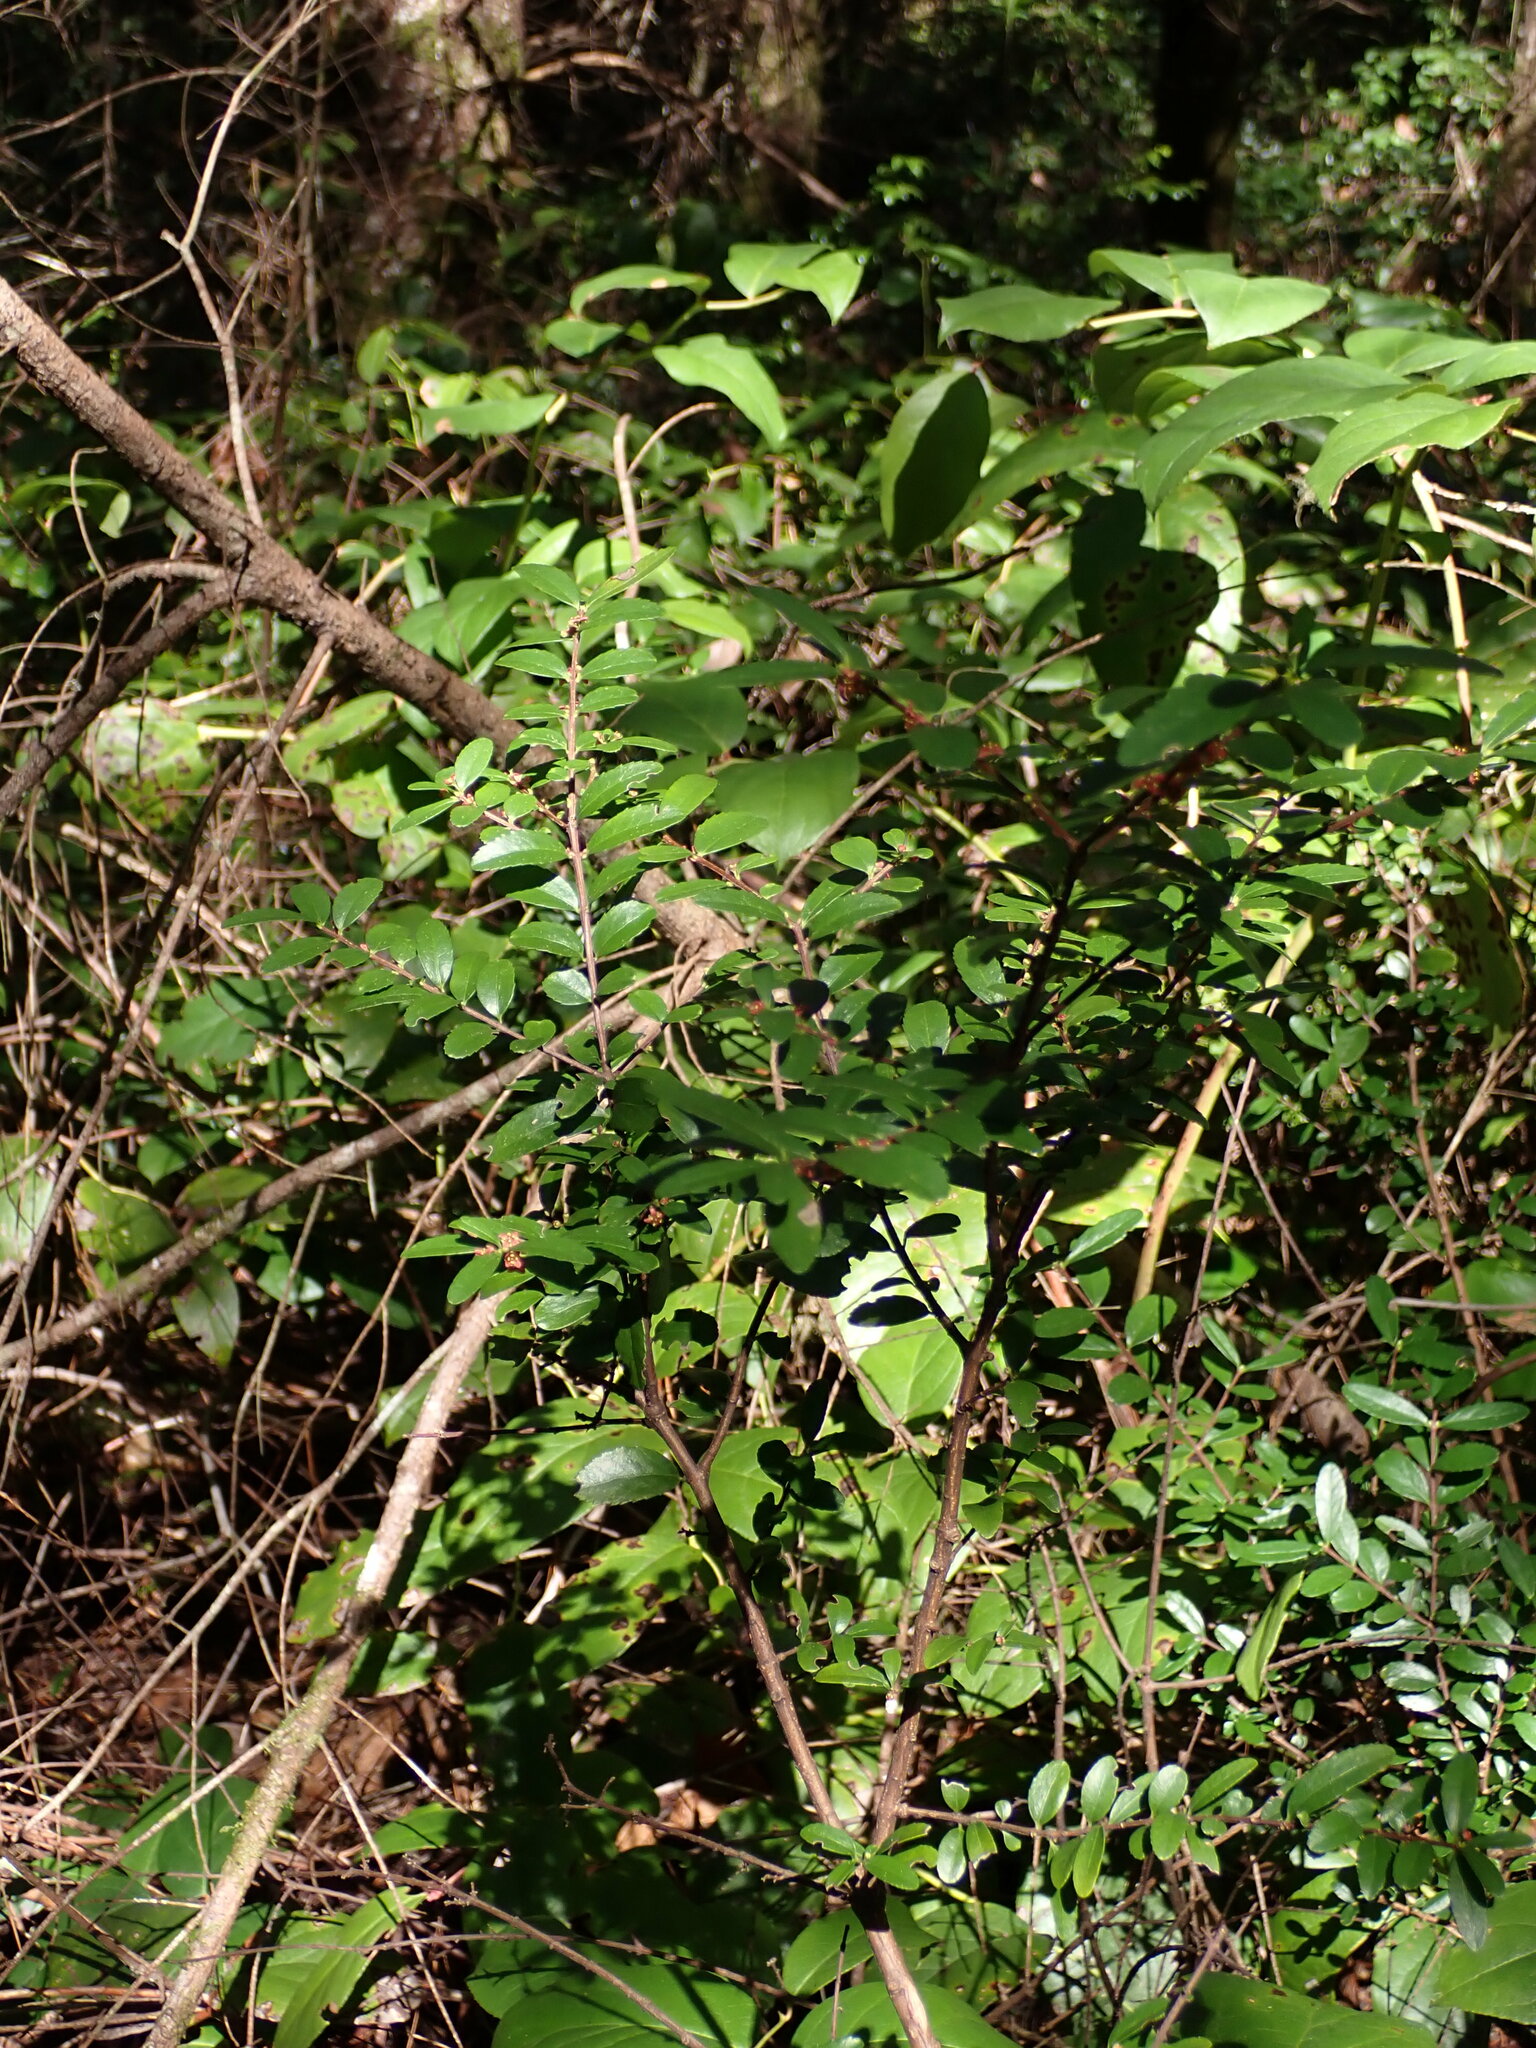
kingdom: Plantae
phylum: Tracheophyta
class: Magnoliopsida
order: Celastrales
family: Celastraceae
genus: Paxistima
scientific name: Paxistima myrsinites
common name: Mountain-lover
